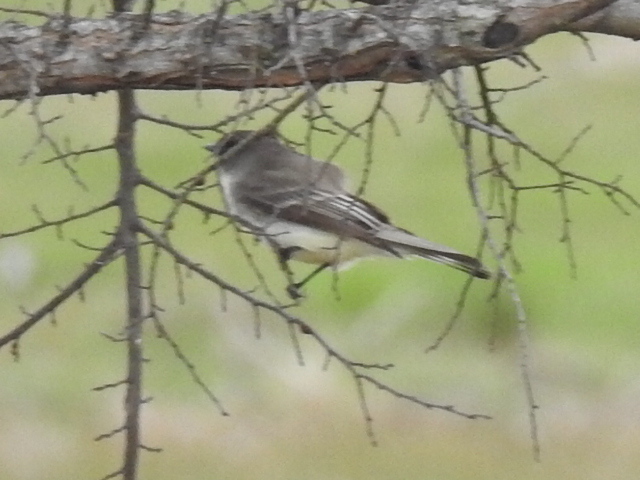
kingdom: Animalia
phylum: Chordata
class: Aves
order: Passeriformes
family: Tyrannidae
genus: Sayornis
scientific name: Sayornis phoebe
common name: Eastern phoebe
